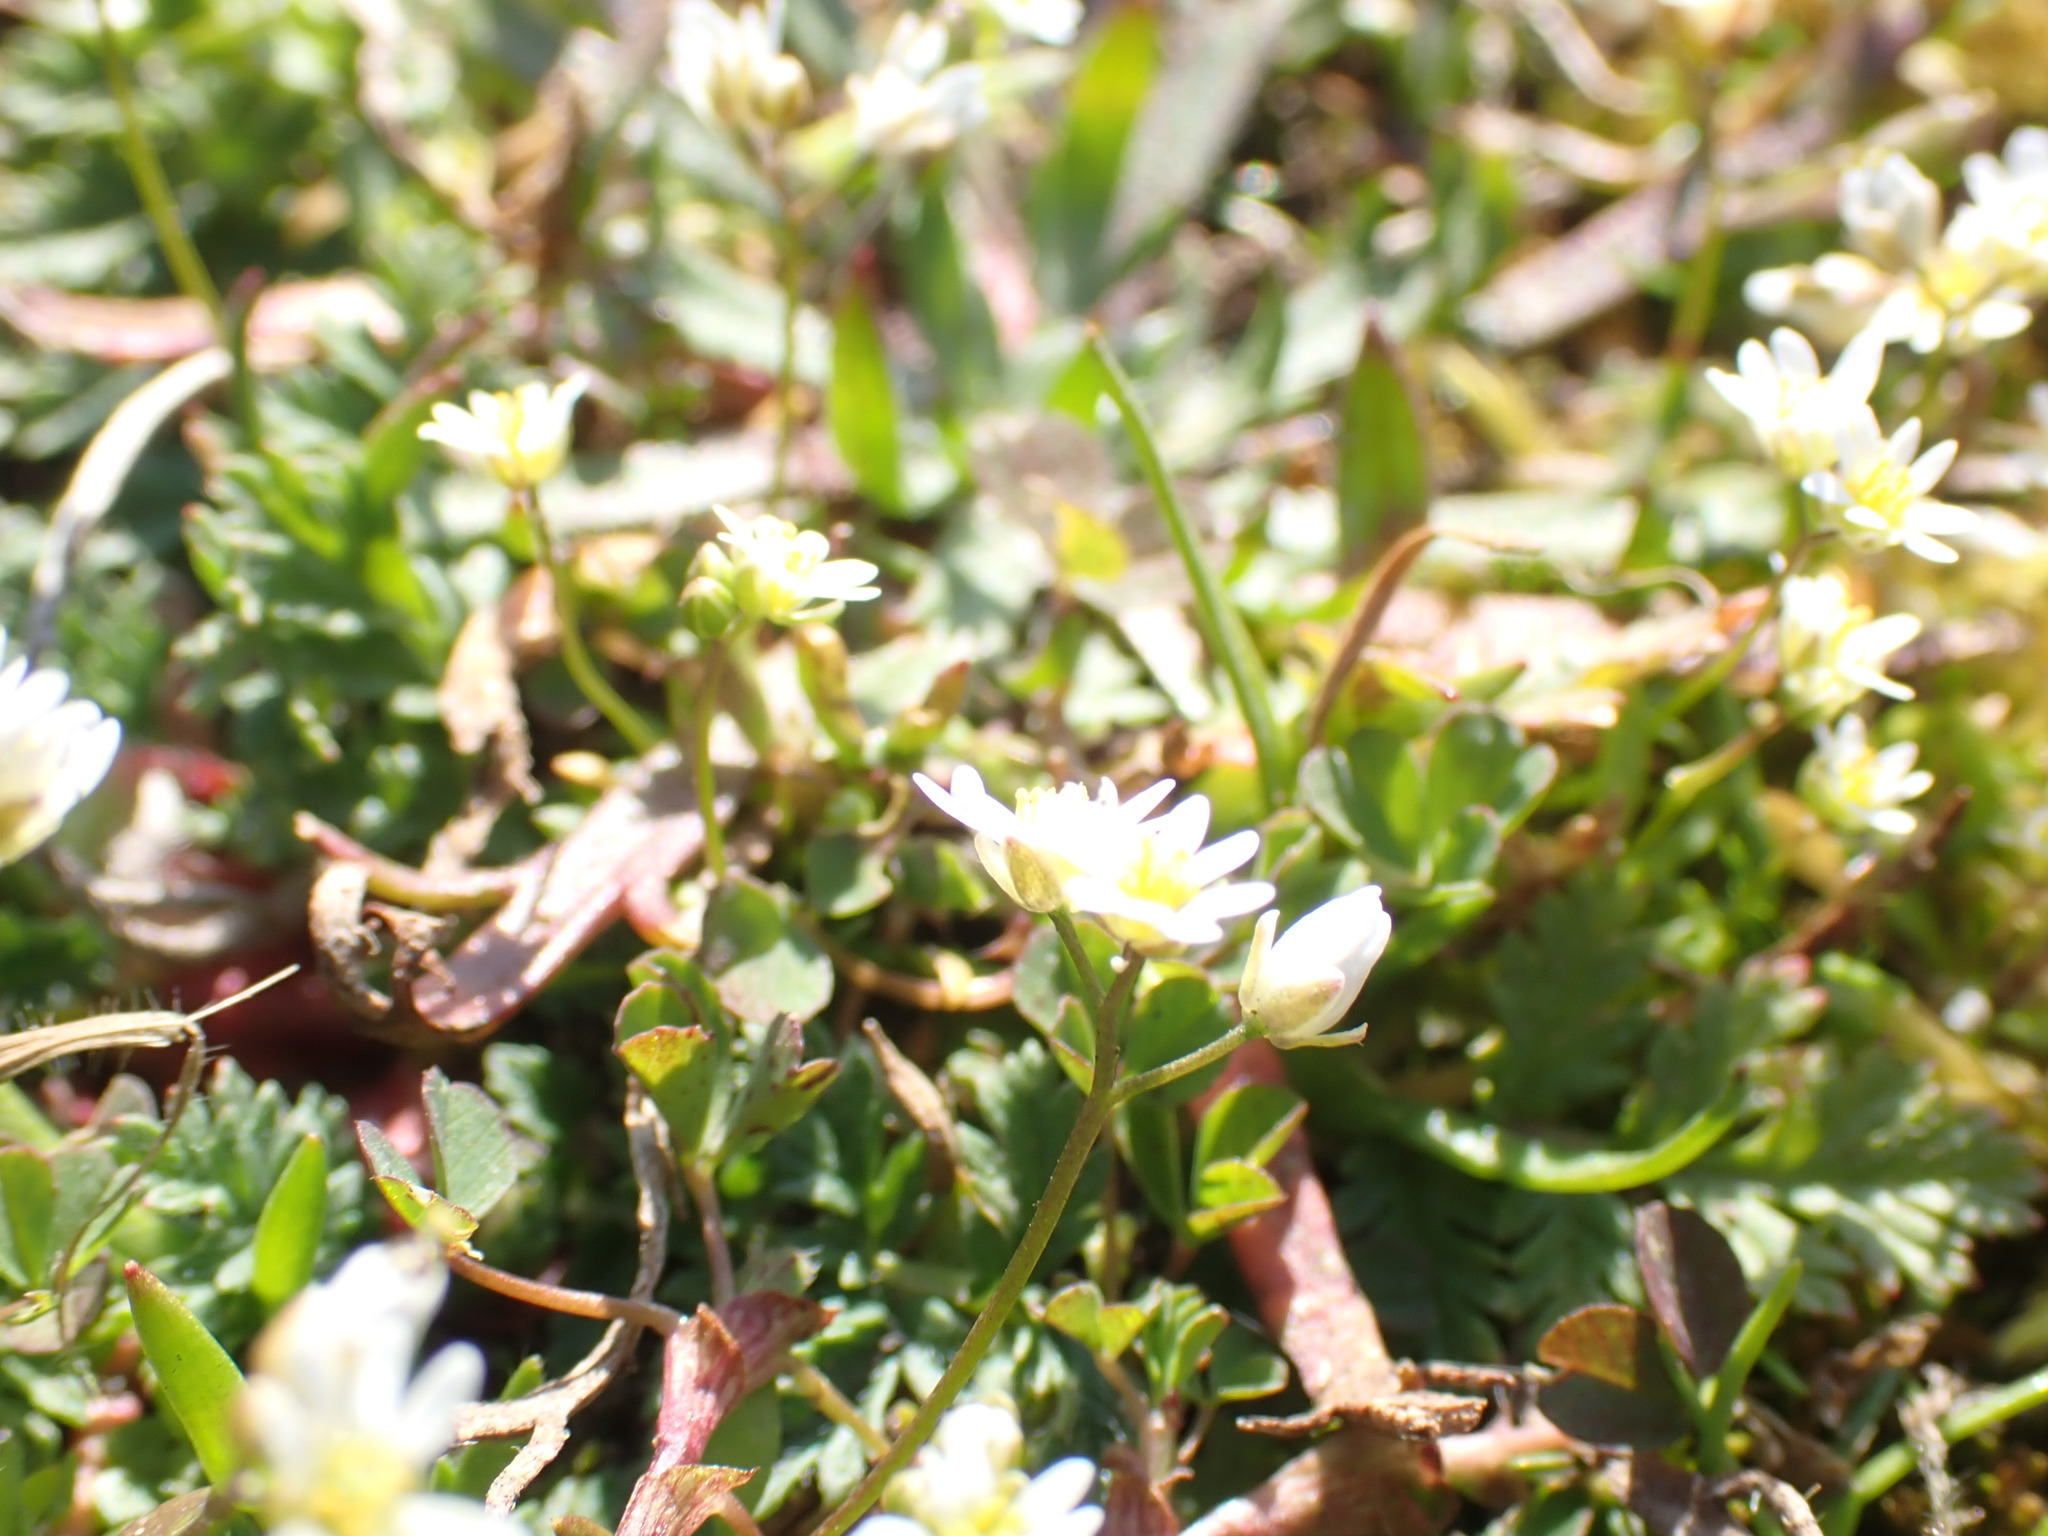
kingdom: Plantae
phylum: Tracheophyta
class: Magnoliopsida
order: Brassicales
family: Brassicaceae
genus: Draba
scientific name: Draba verna
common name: Spring draba
